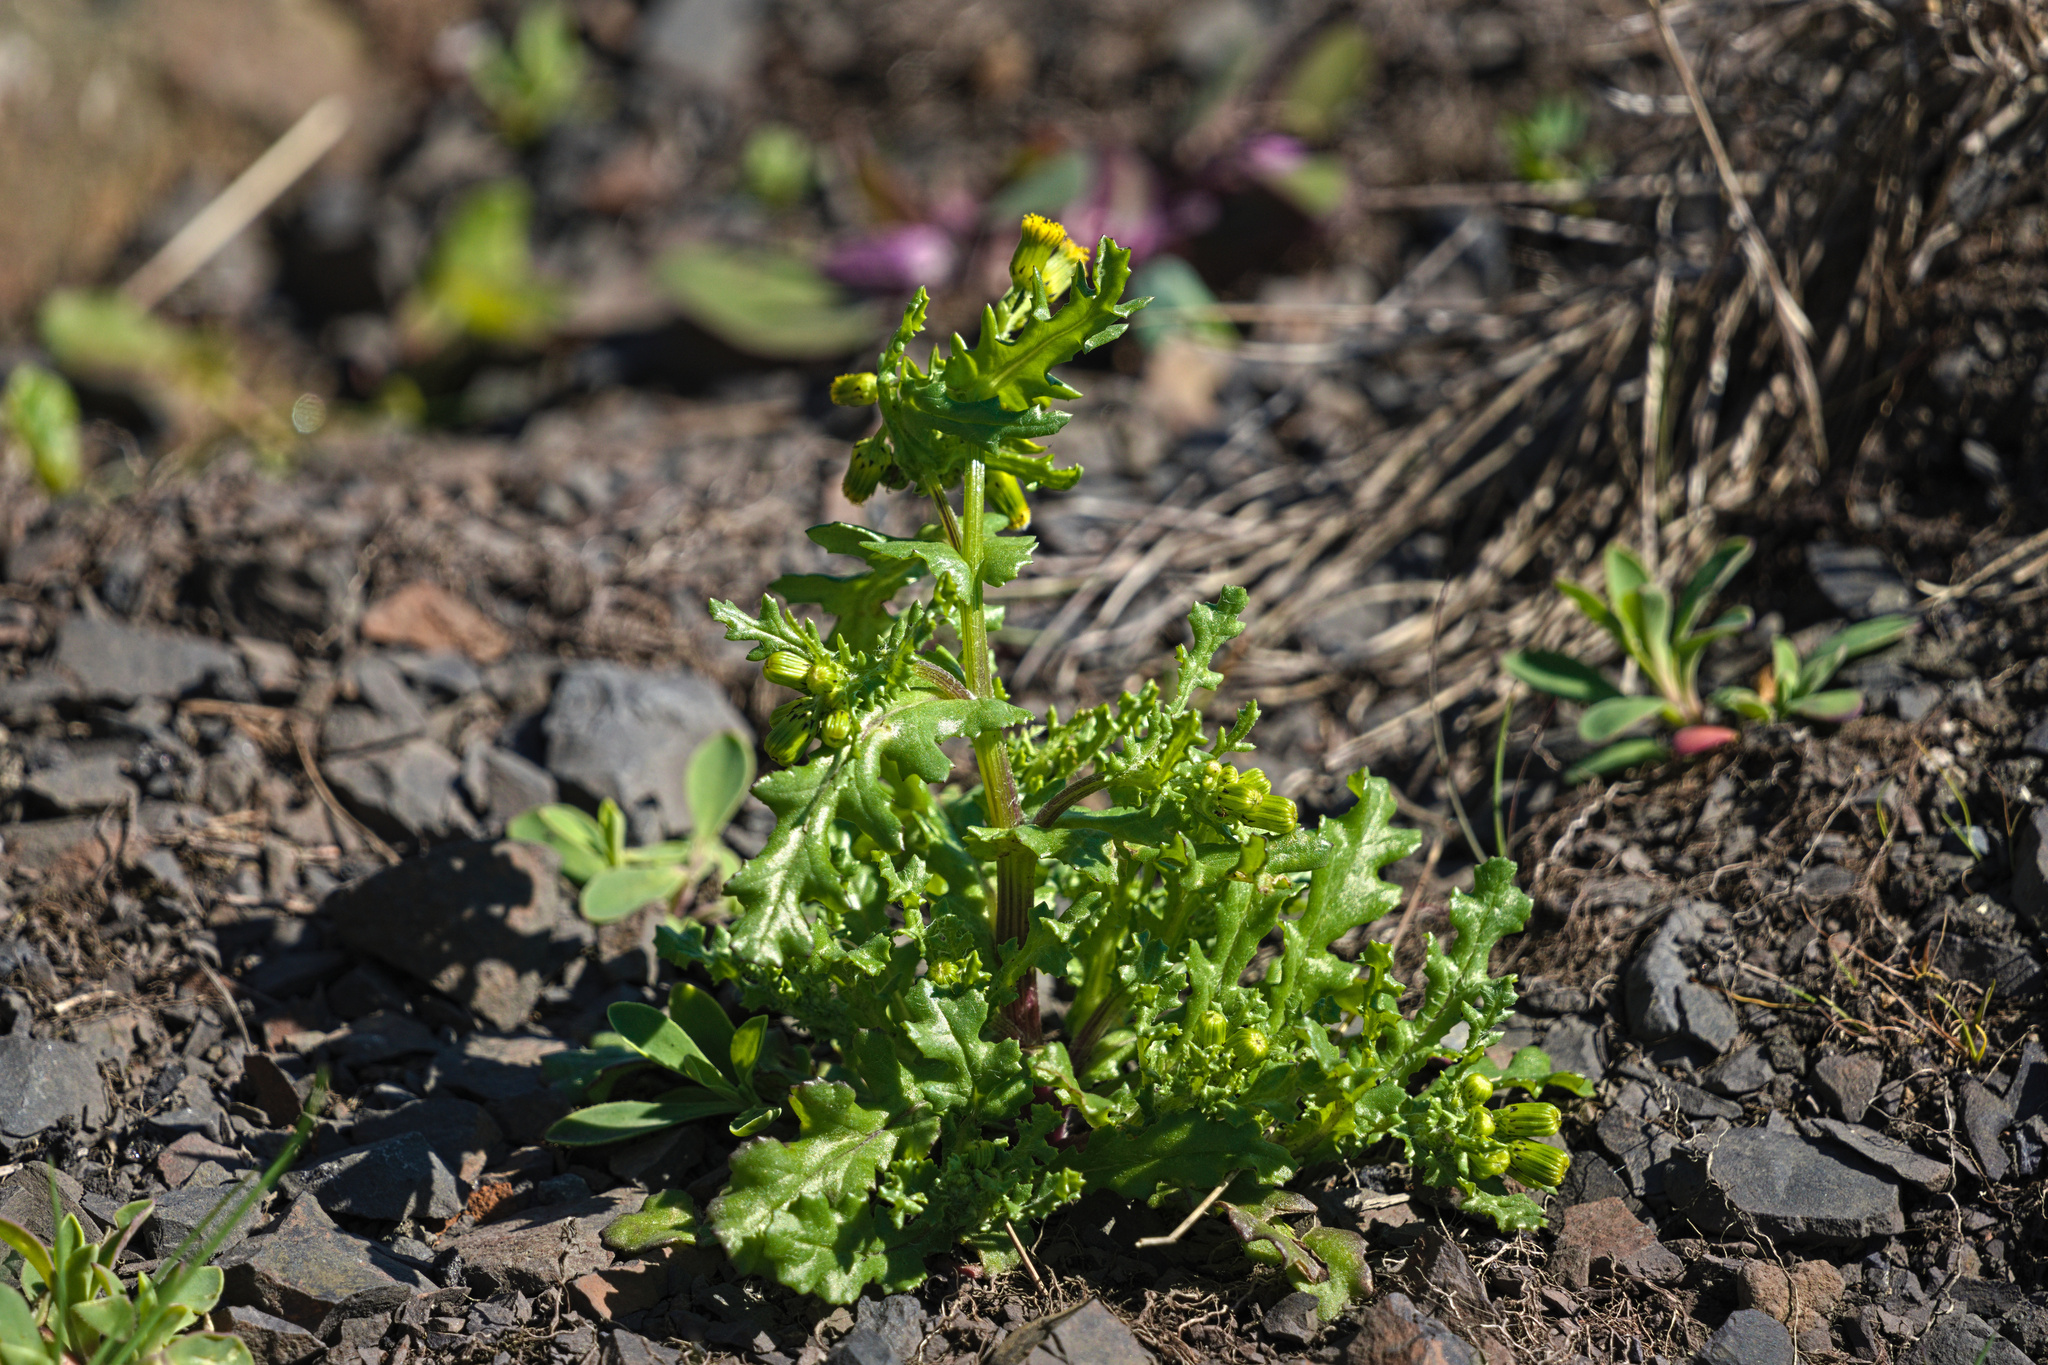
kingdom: Plantae
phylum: Tracheophyta
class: Magnoliopsida
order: Asterales
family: Asteraceae
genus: Senecio
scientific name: Senecio vulgaris
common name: Old-man-in-the-spring
